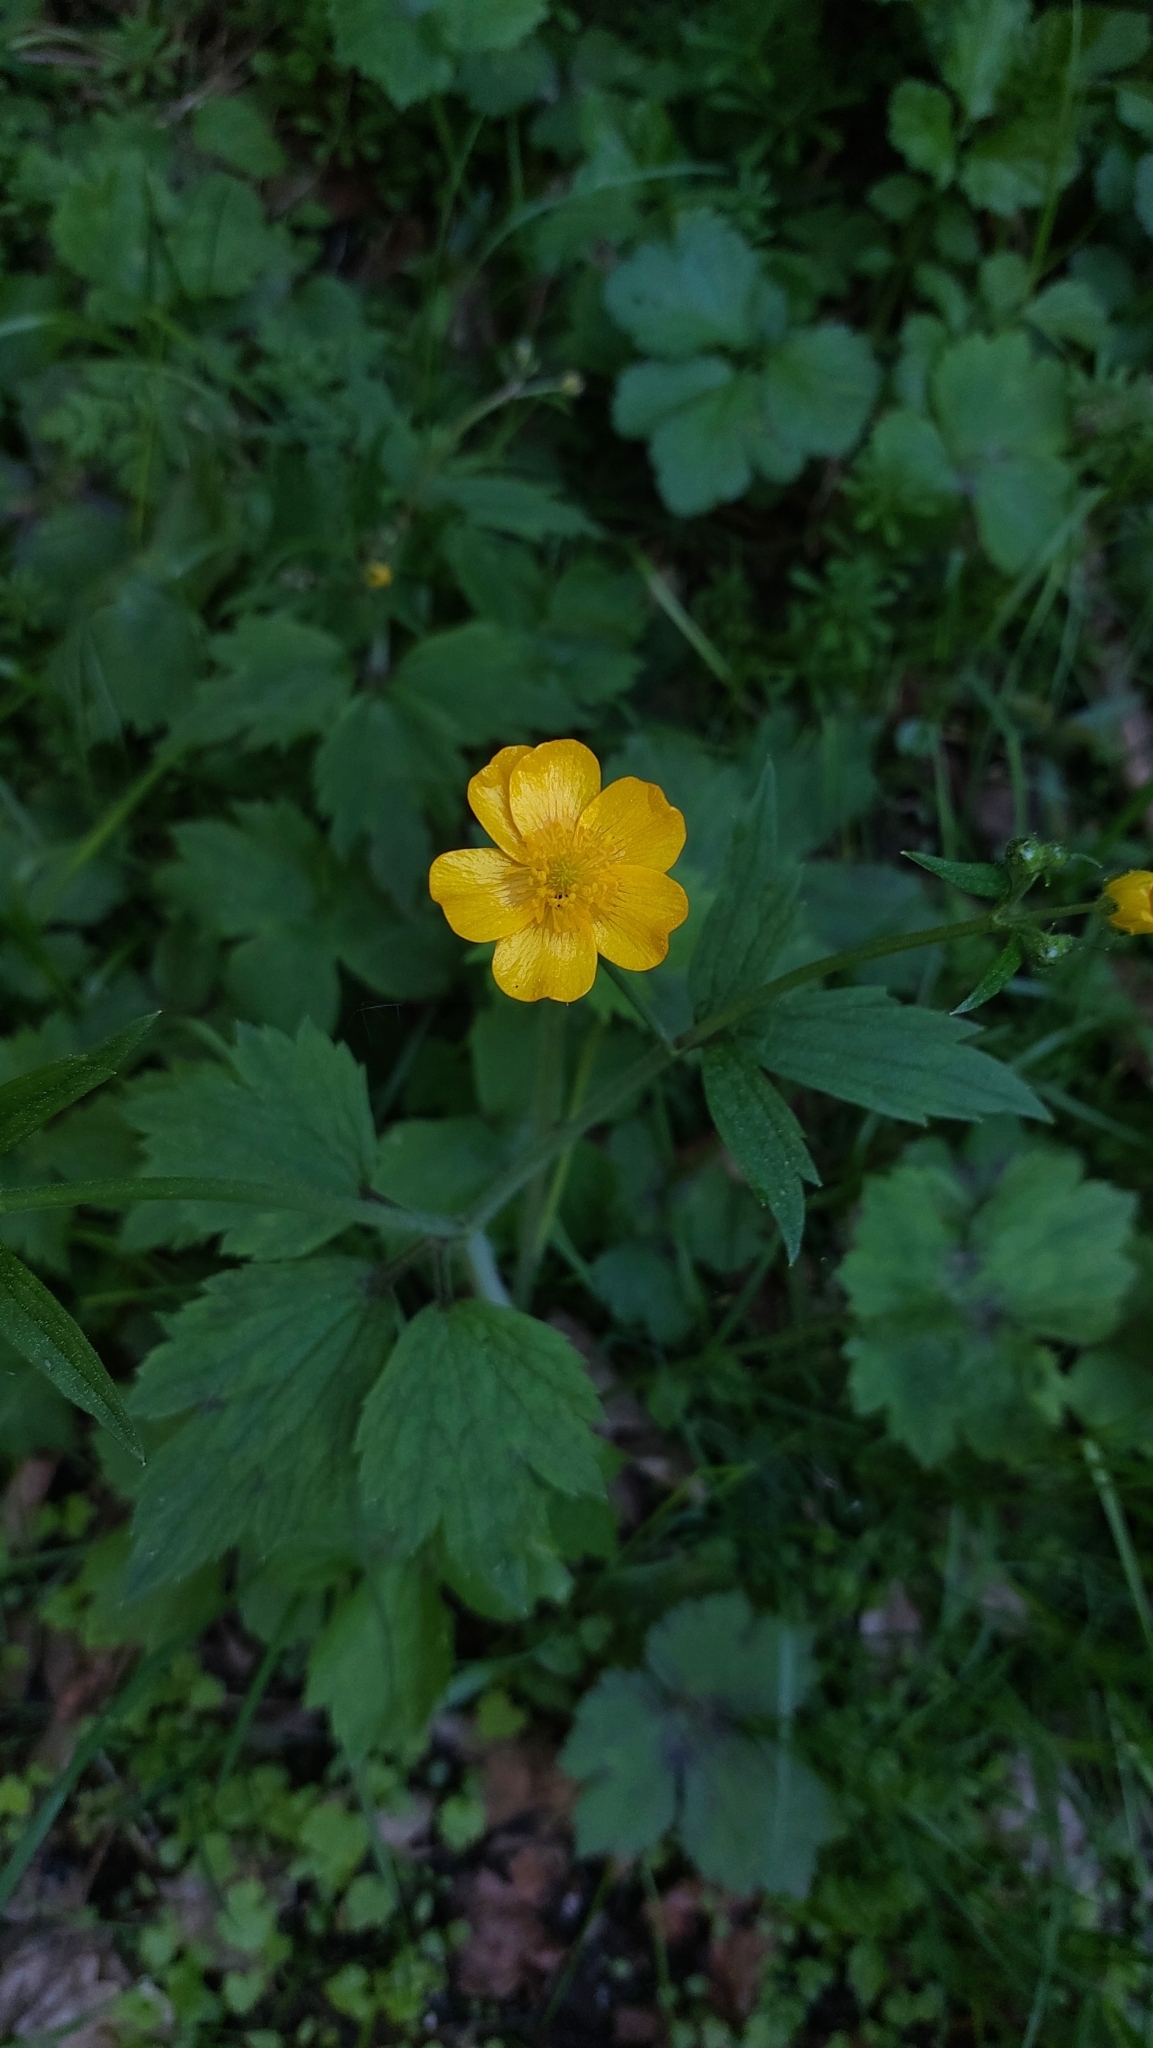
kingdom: Plantae
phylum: Tracheophyta
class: Magnoliopsida
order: Ranunculales
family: Ranunculaceae
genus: Ranunculus
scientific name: Ranunculus lanuginosus
